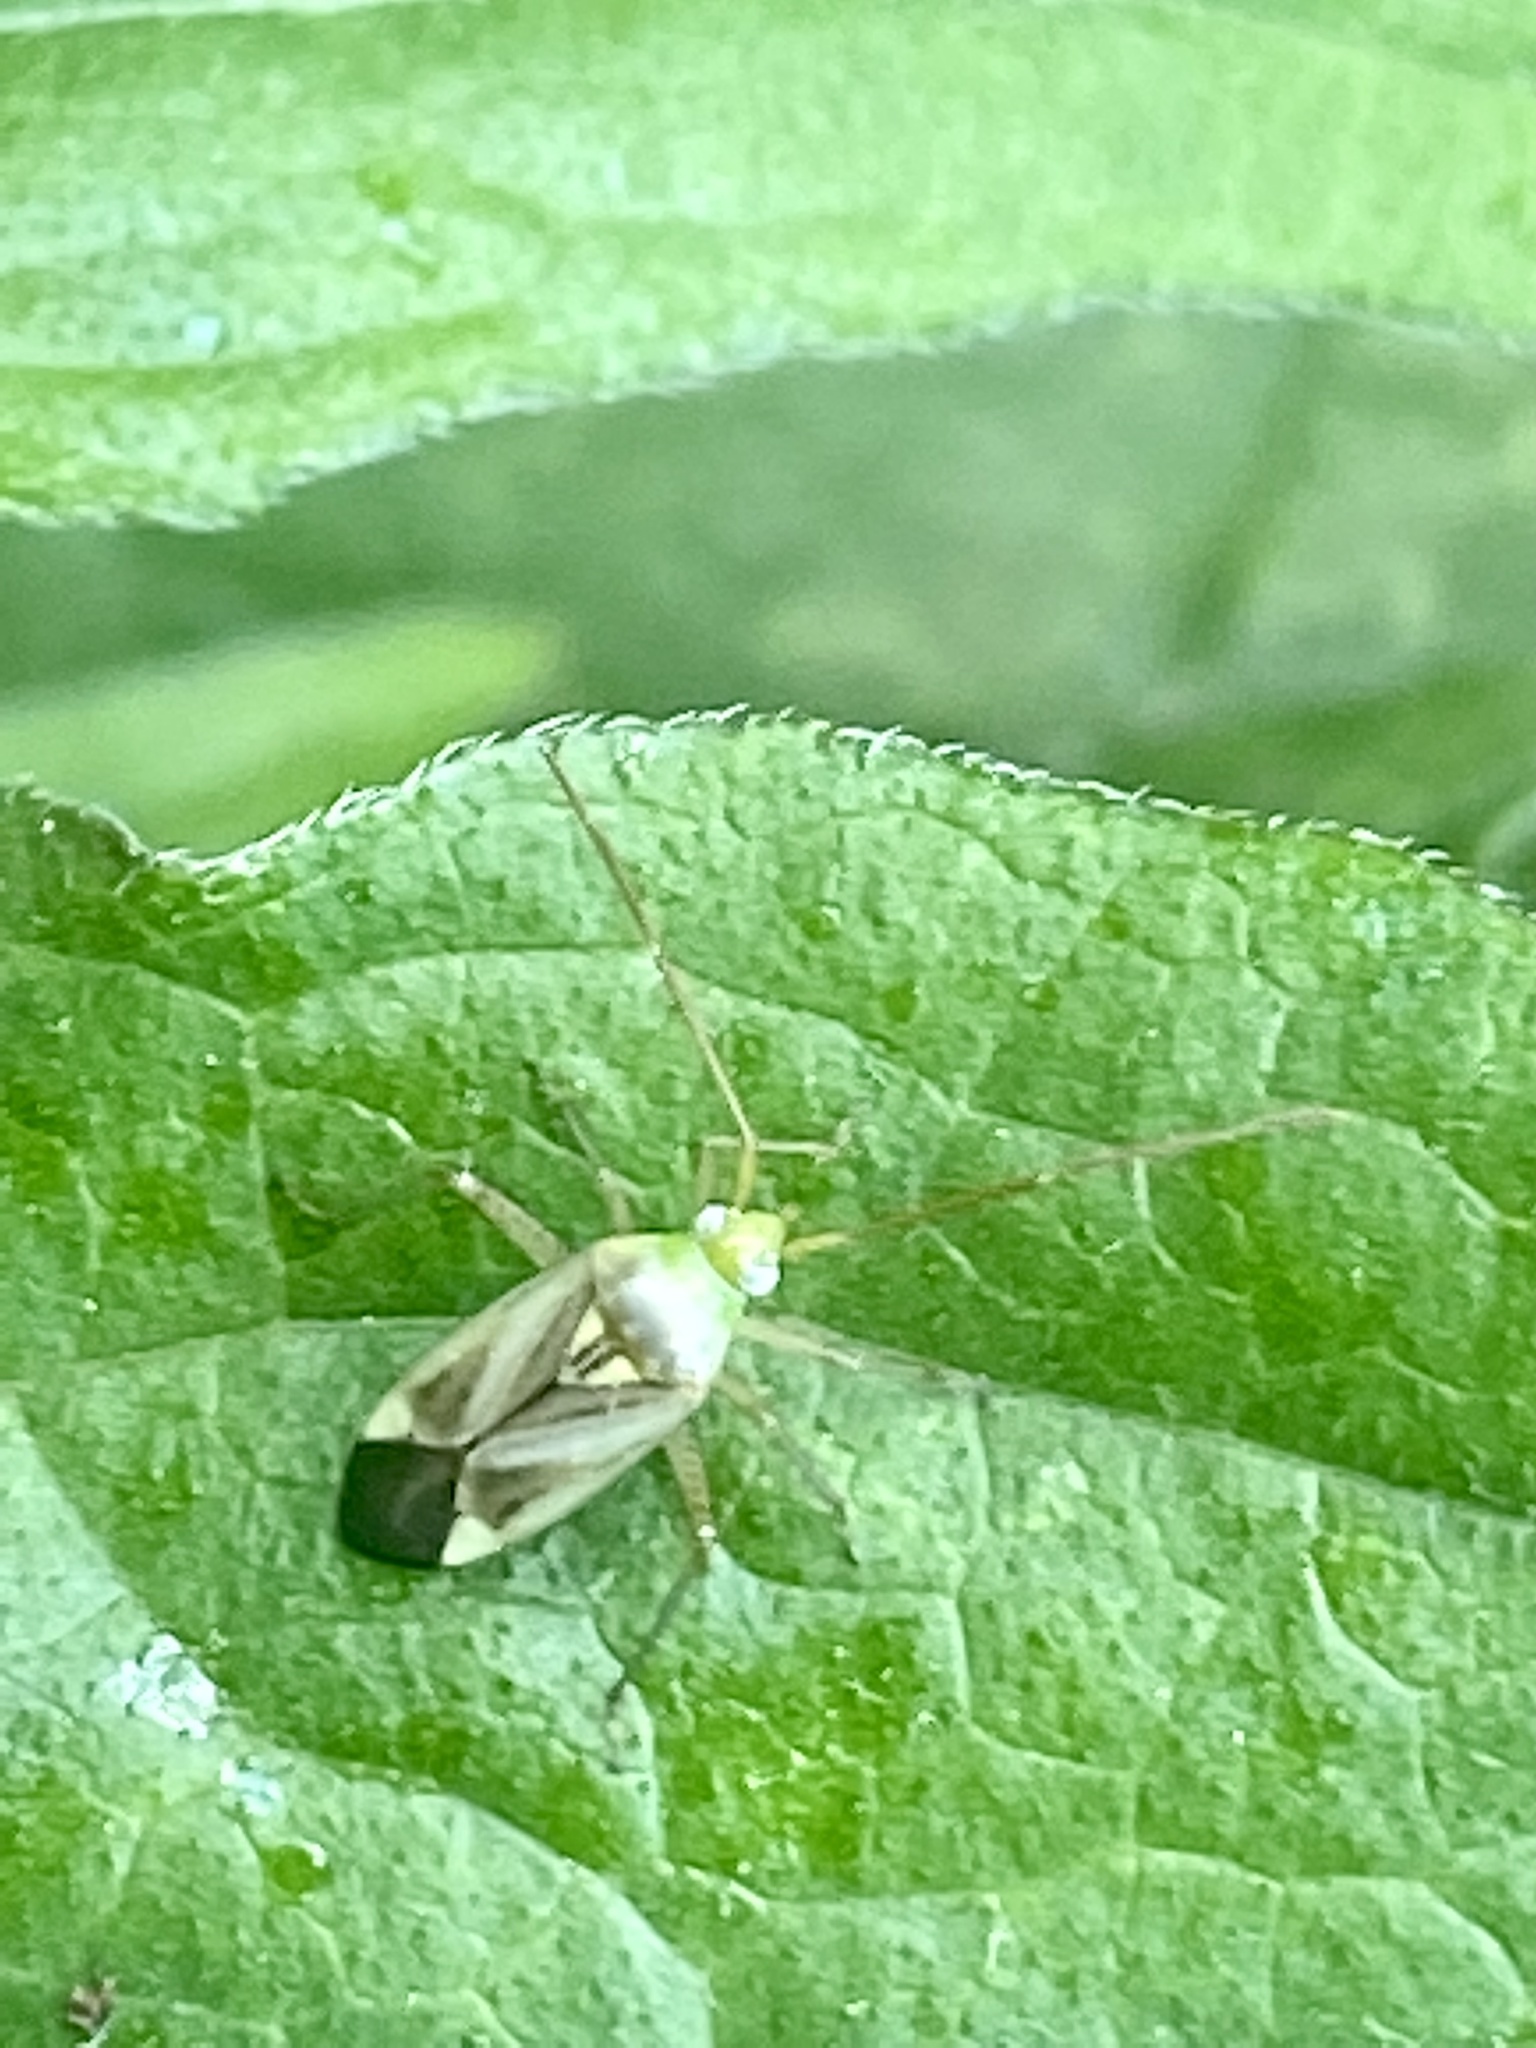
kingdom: Animalia
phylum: Arthropoda
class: Insecta
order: Hemiptera
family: Miridae
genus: Adelphocoris
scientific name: Adelphocoris lineolatus
